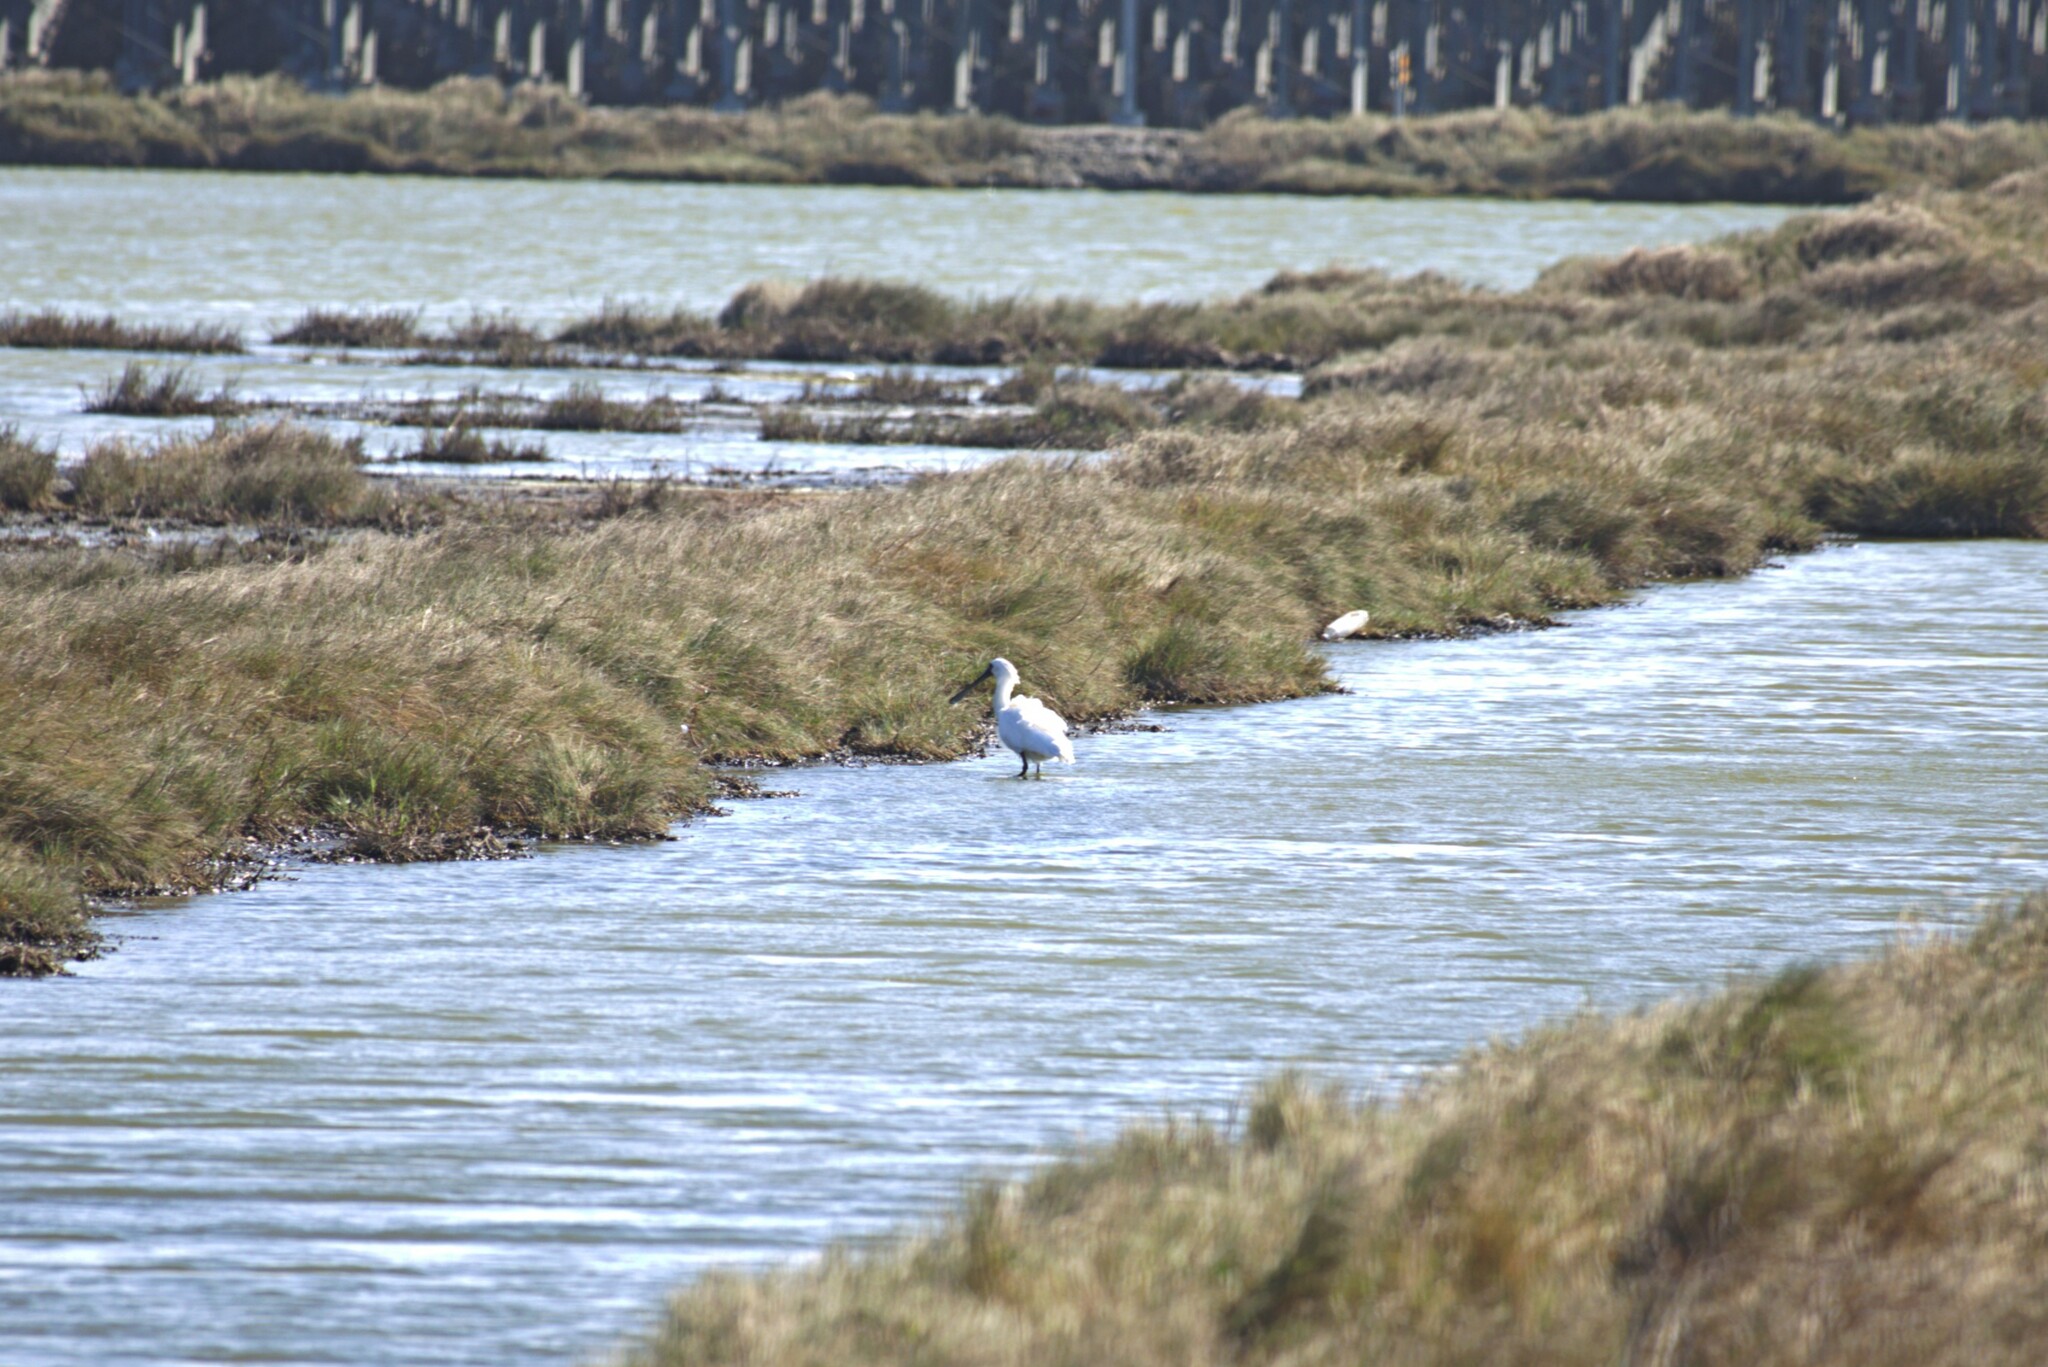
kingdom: Animalia
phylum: Chordata
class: Aves
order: Pelecaniformes
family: Threskiornithidae
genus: Platalea
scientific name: Platalea minor
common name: Black-faced spoonbill
